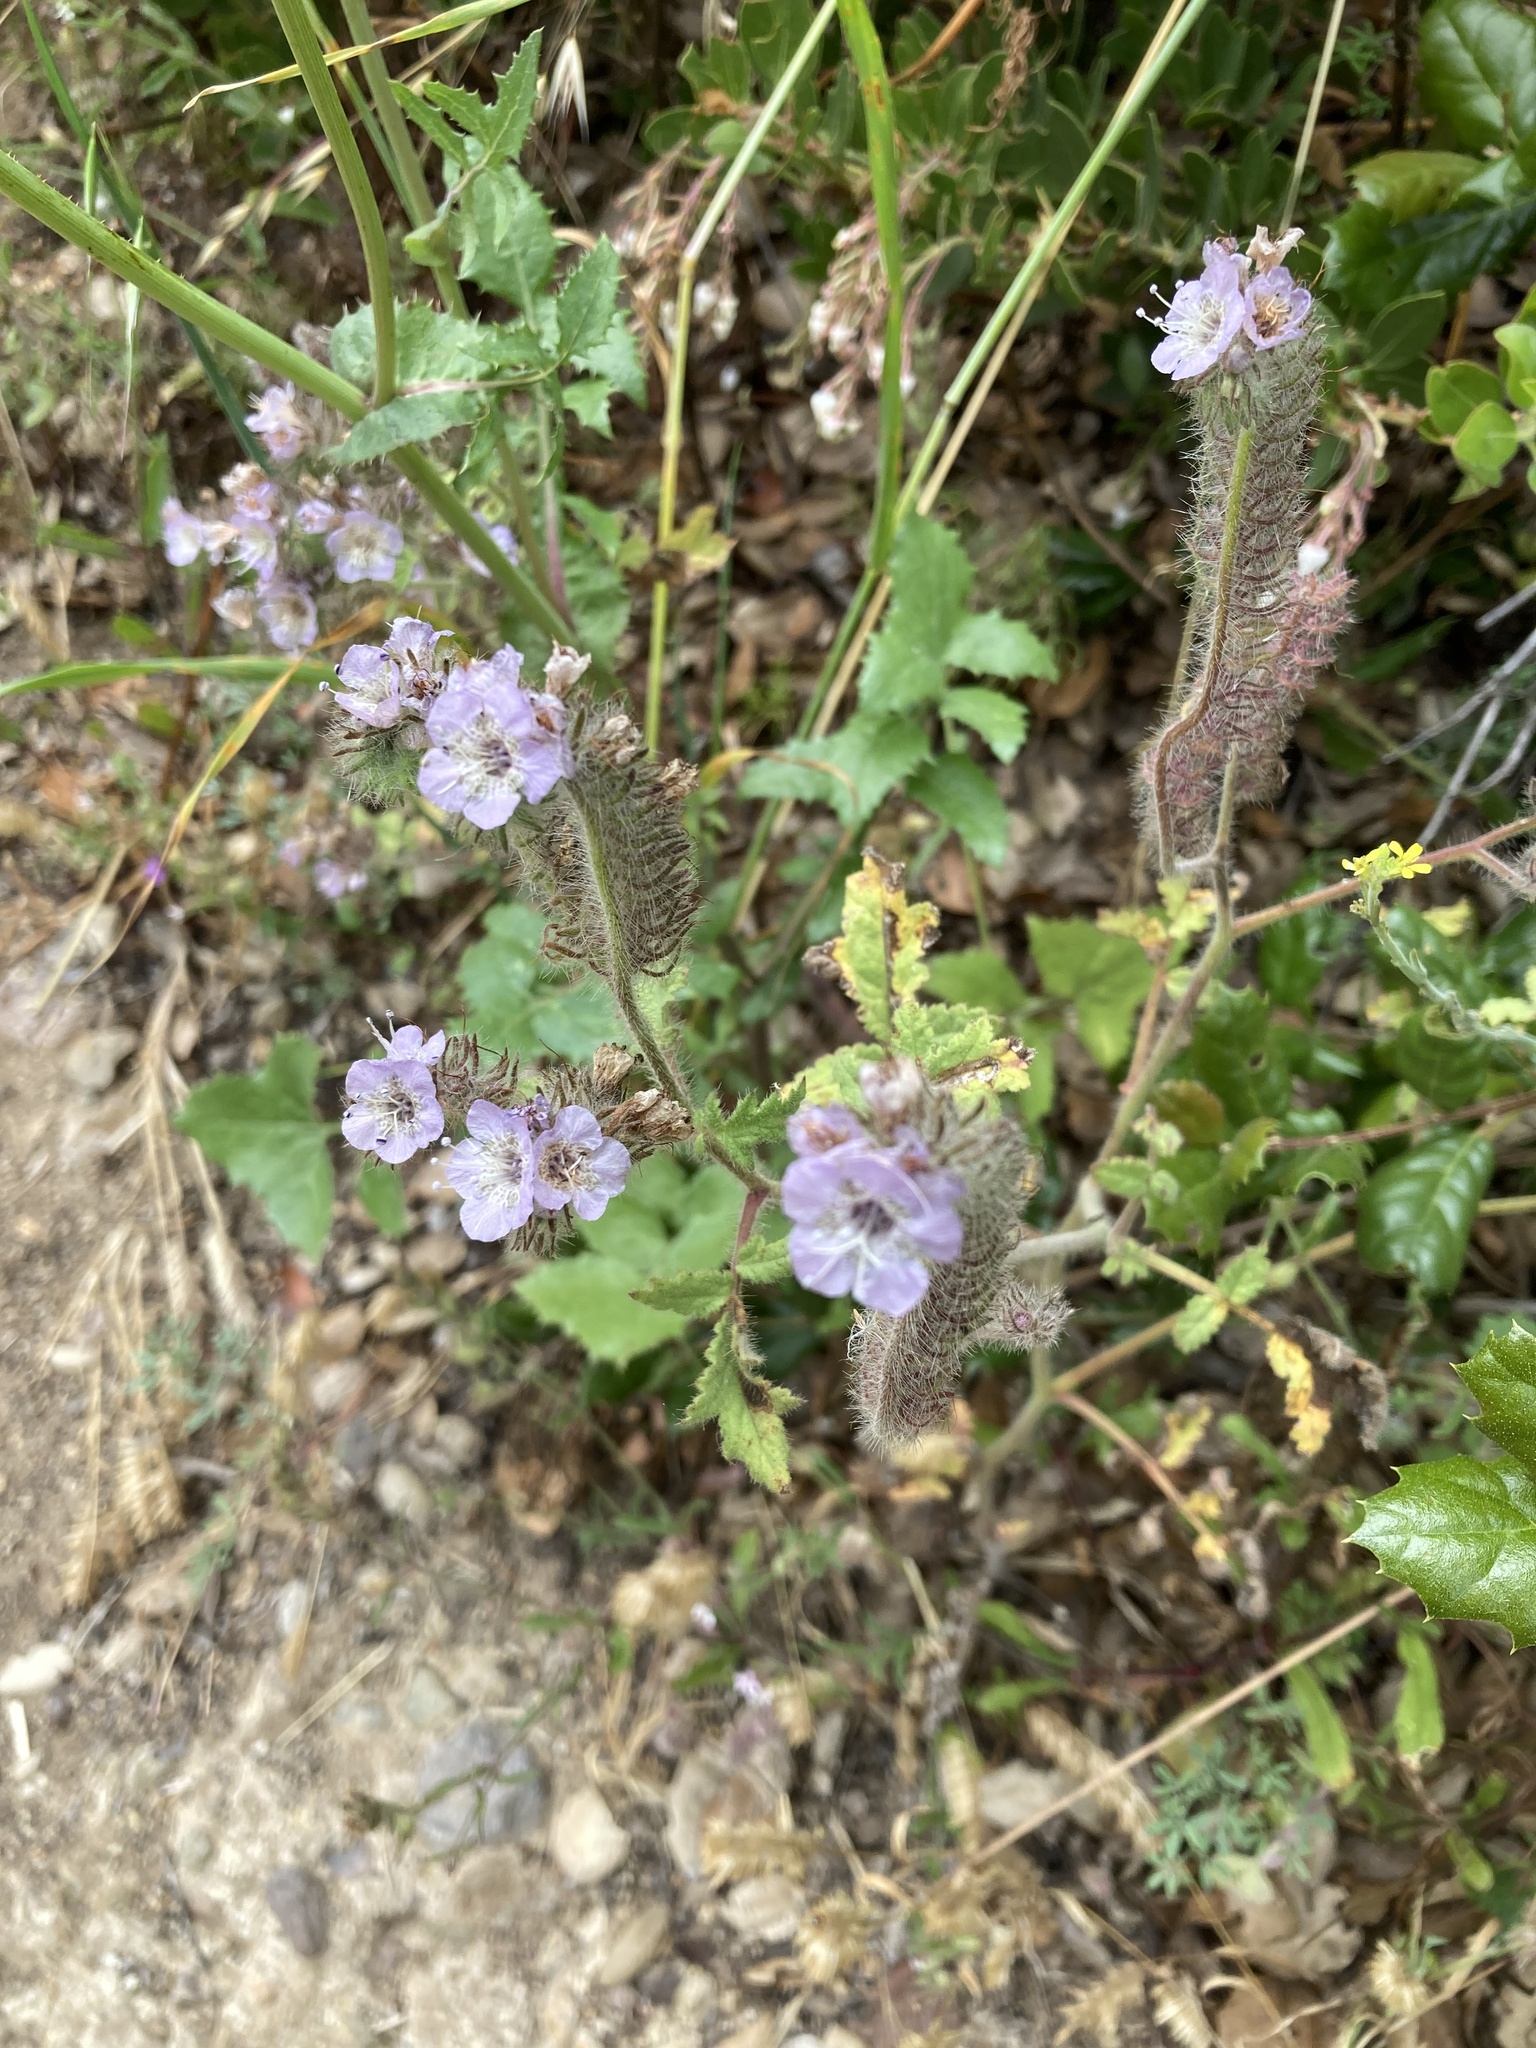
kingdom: Plantae
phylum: Tracheophyta
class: Magnoliopsida
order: Boraginales
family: Hydrophyllaceae
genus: Phacelia
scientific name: Phacelia cicutaria
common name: Caterpillar phacelia
